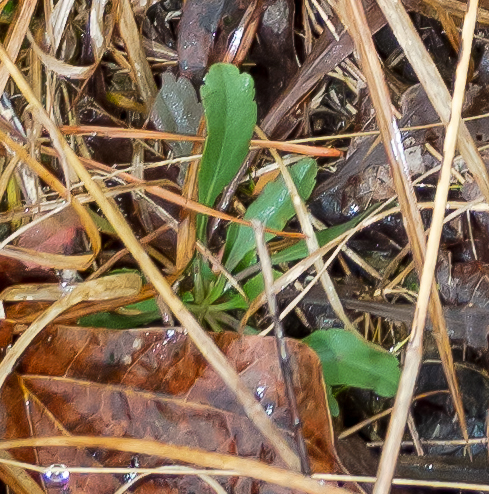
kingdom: Plantae
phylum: Tracheophyta
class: Magnoliopsida
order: Asterales
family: Asteraceae
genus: Solidago
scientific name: Solidago nemoralis
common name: Grey goldenrod
